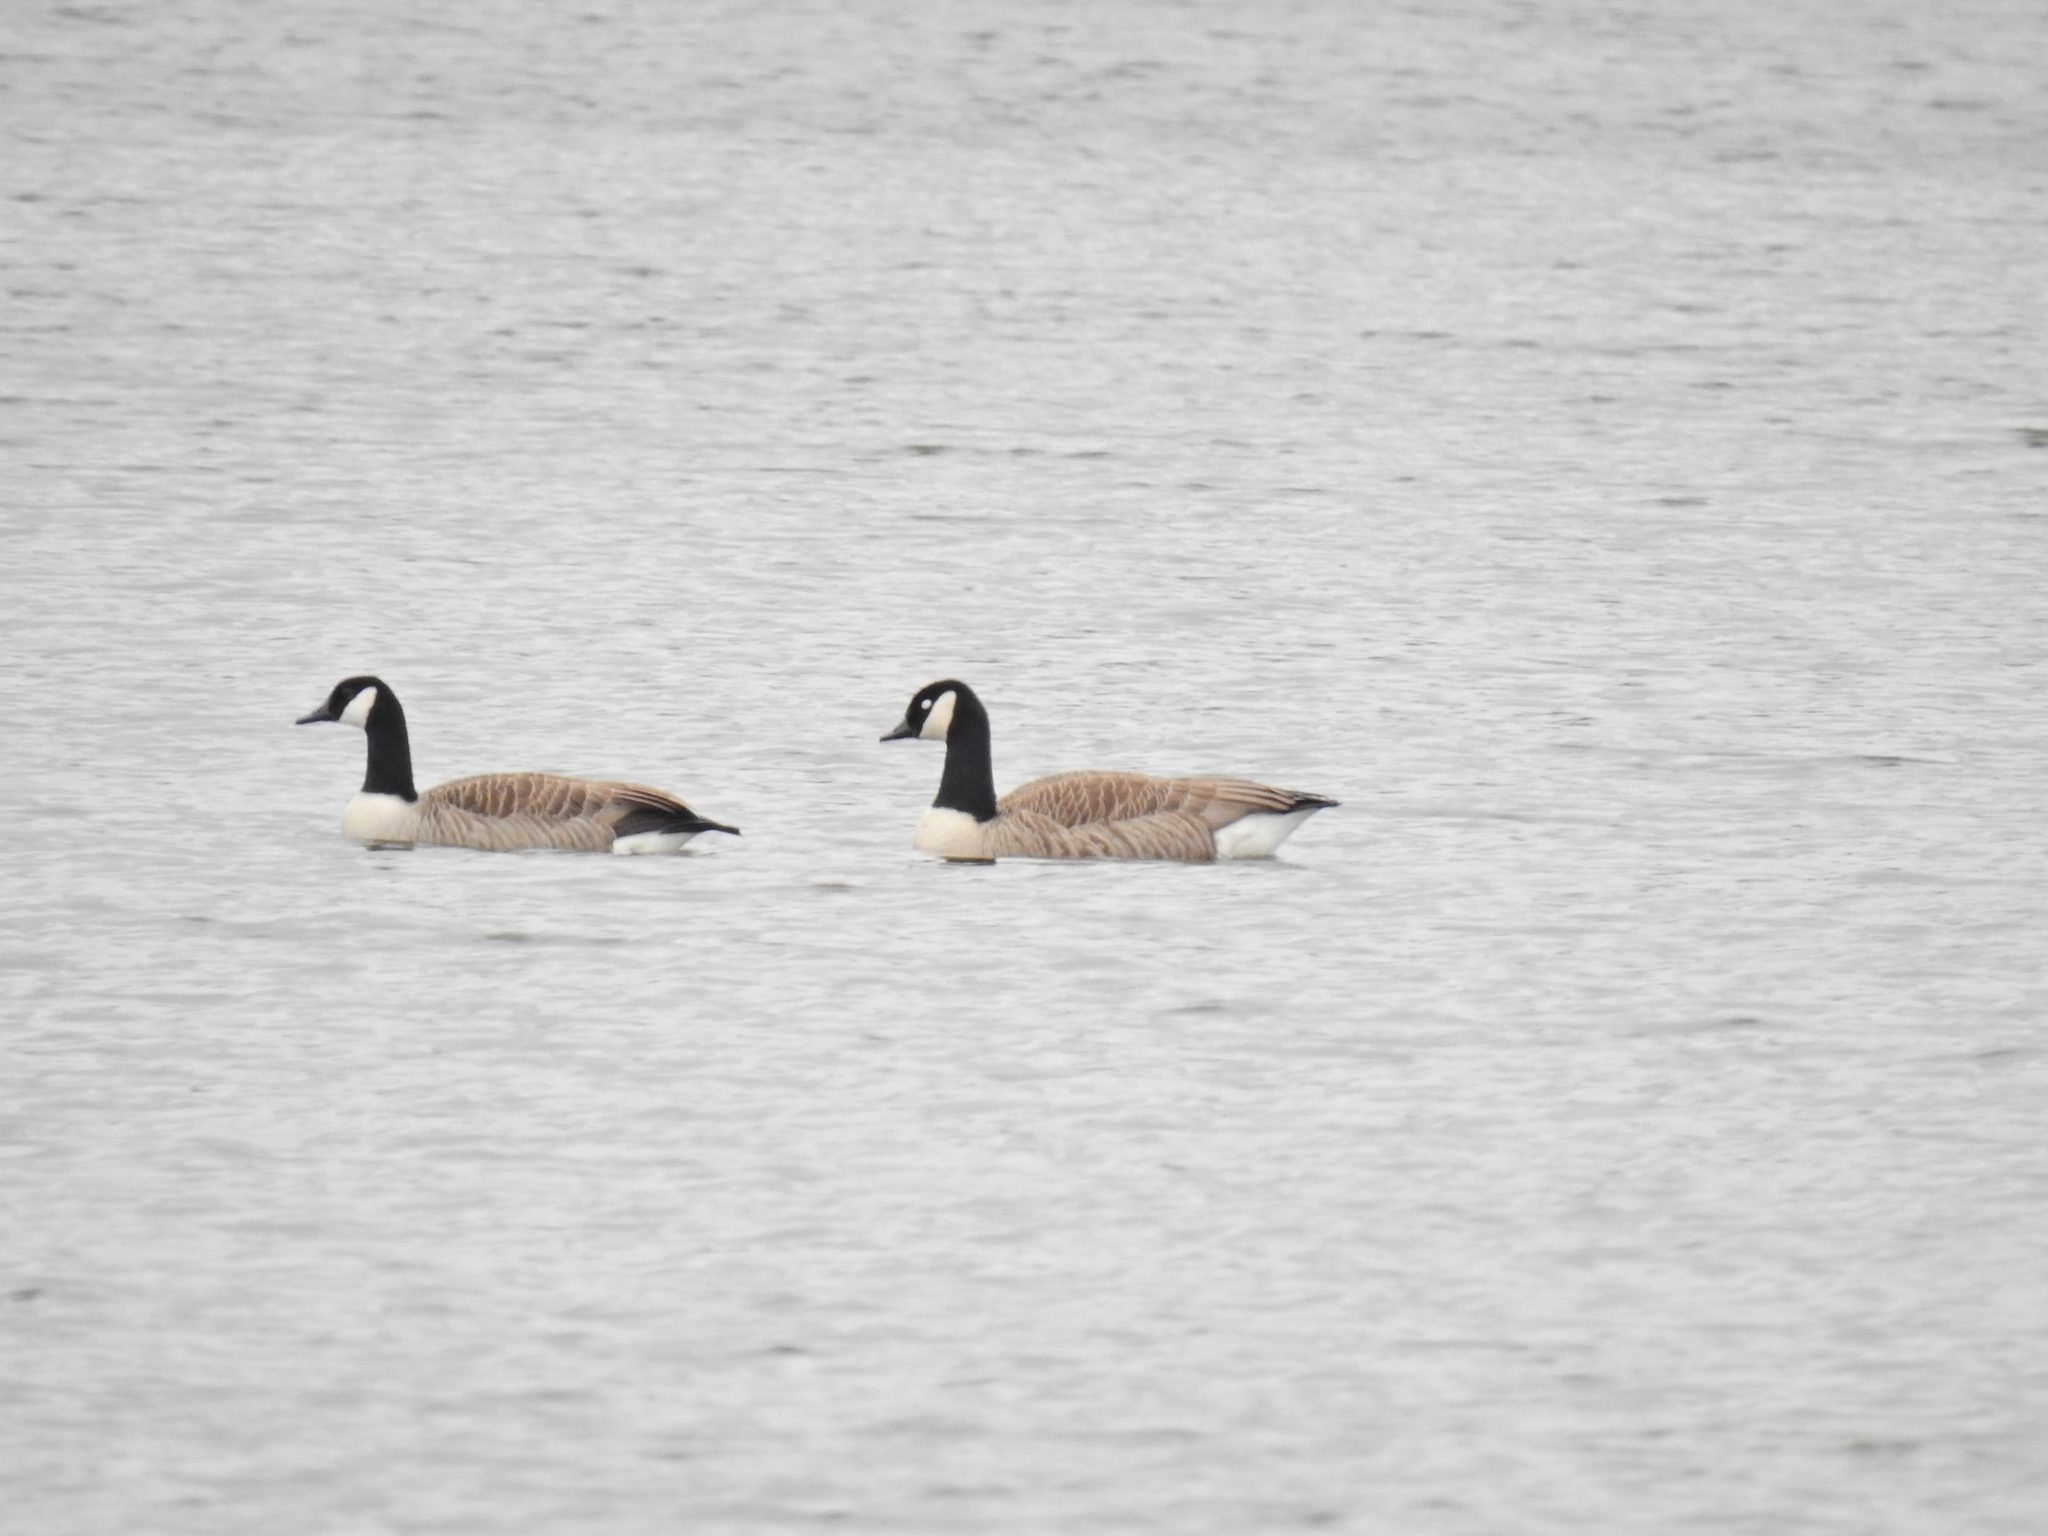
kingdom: Animalia
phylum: Chordata
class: Aves
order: Anseriformes
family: Anatidae
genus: Branta
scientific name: Branta canadensis
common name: Canada goose
